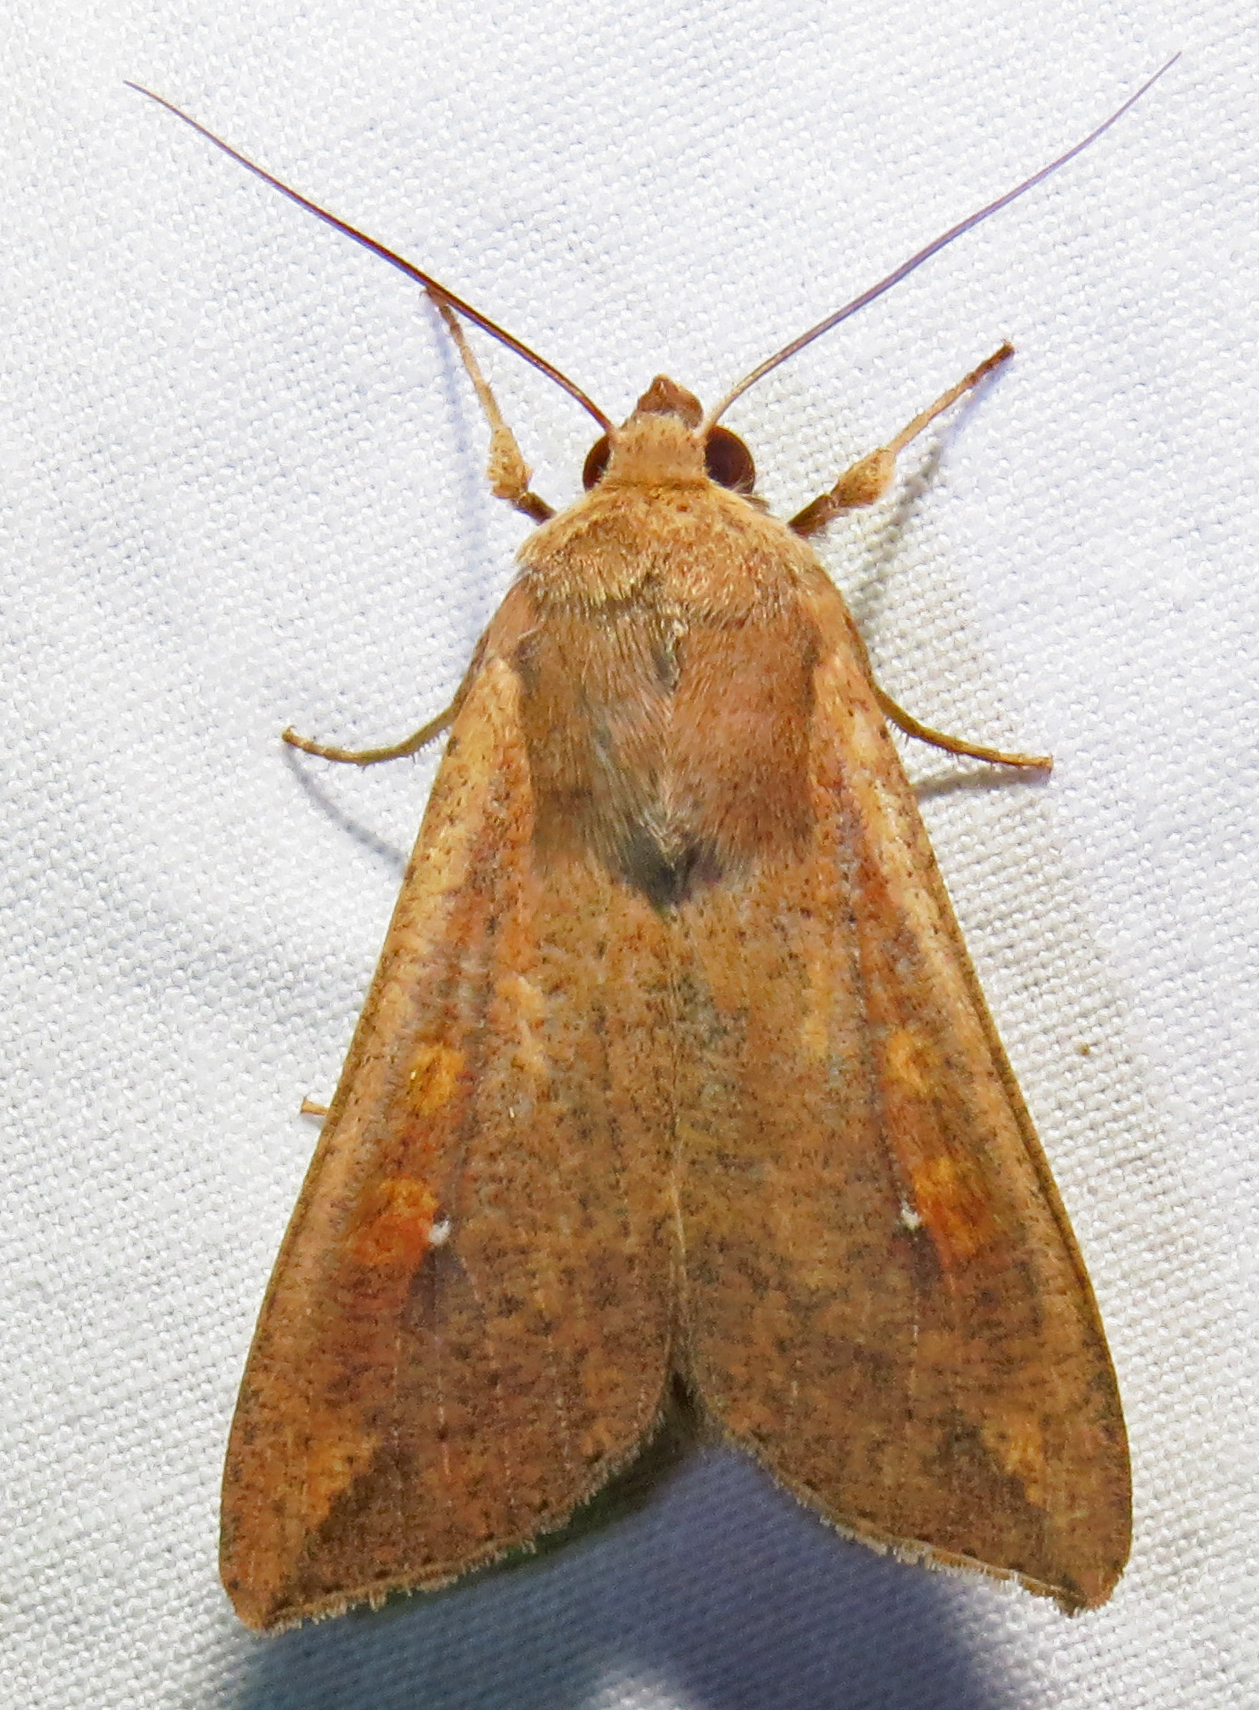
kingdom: Animalia
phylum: Arthropoda
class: Insecta
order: Lepidoptera
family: Noctuidae
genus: Mythimna
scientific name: Mythimna unipuncta
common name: White-speck
